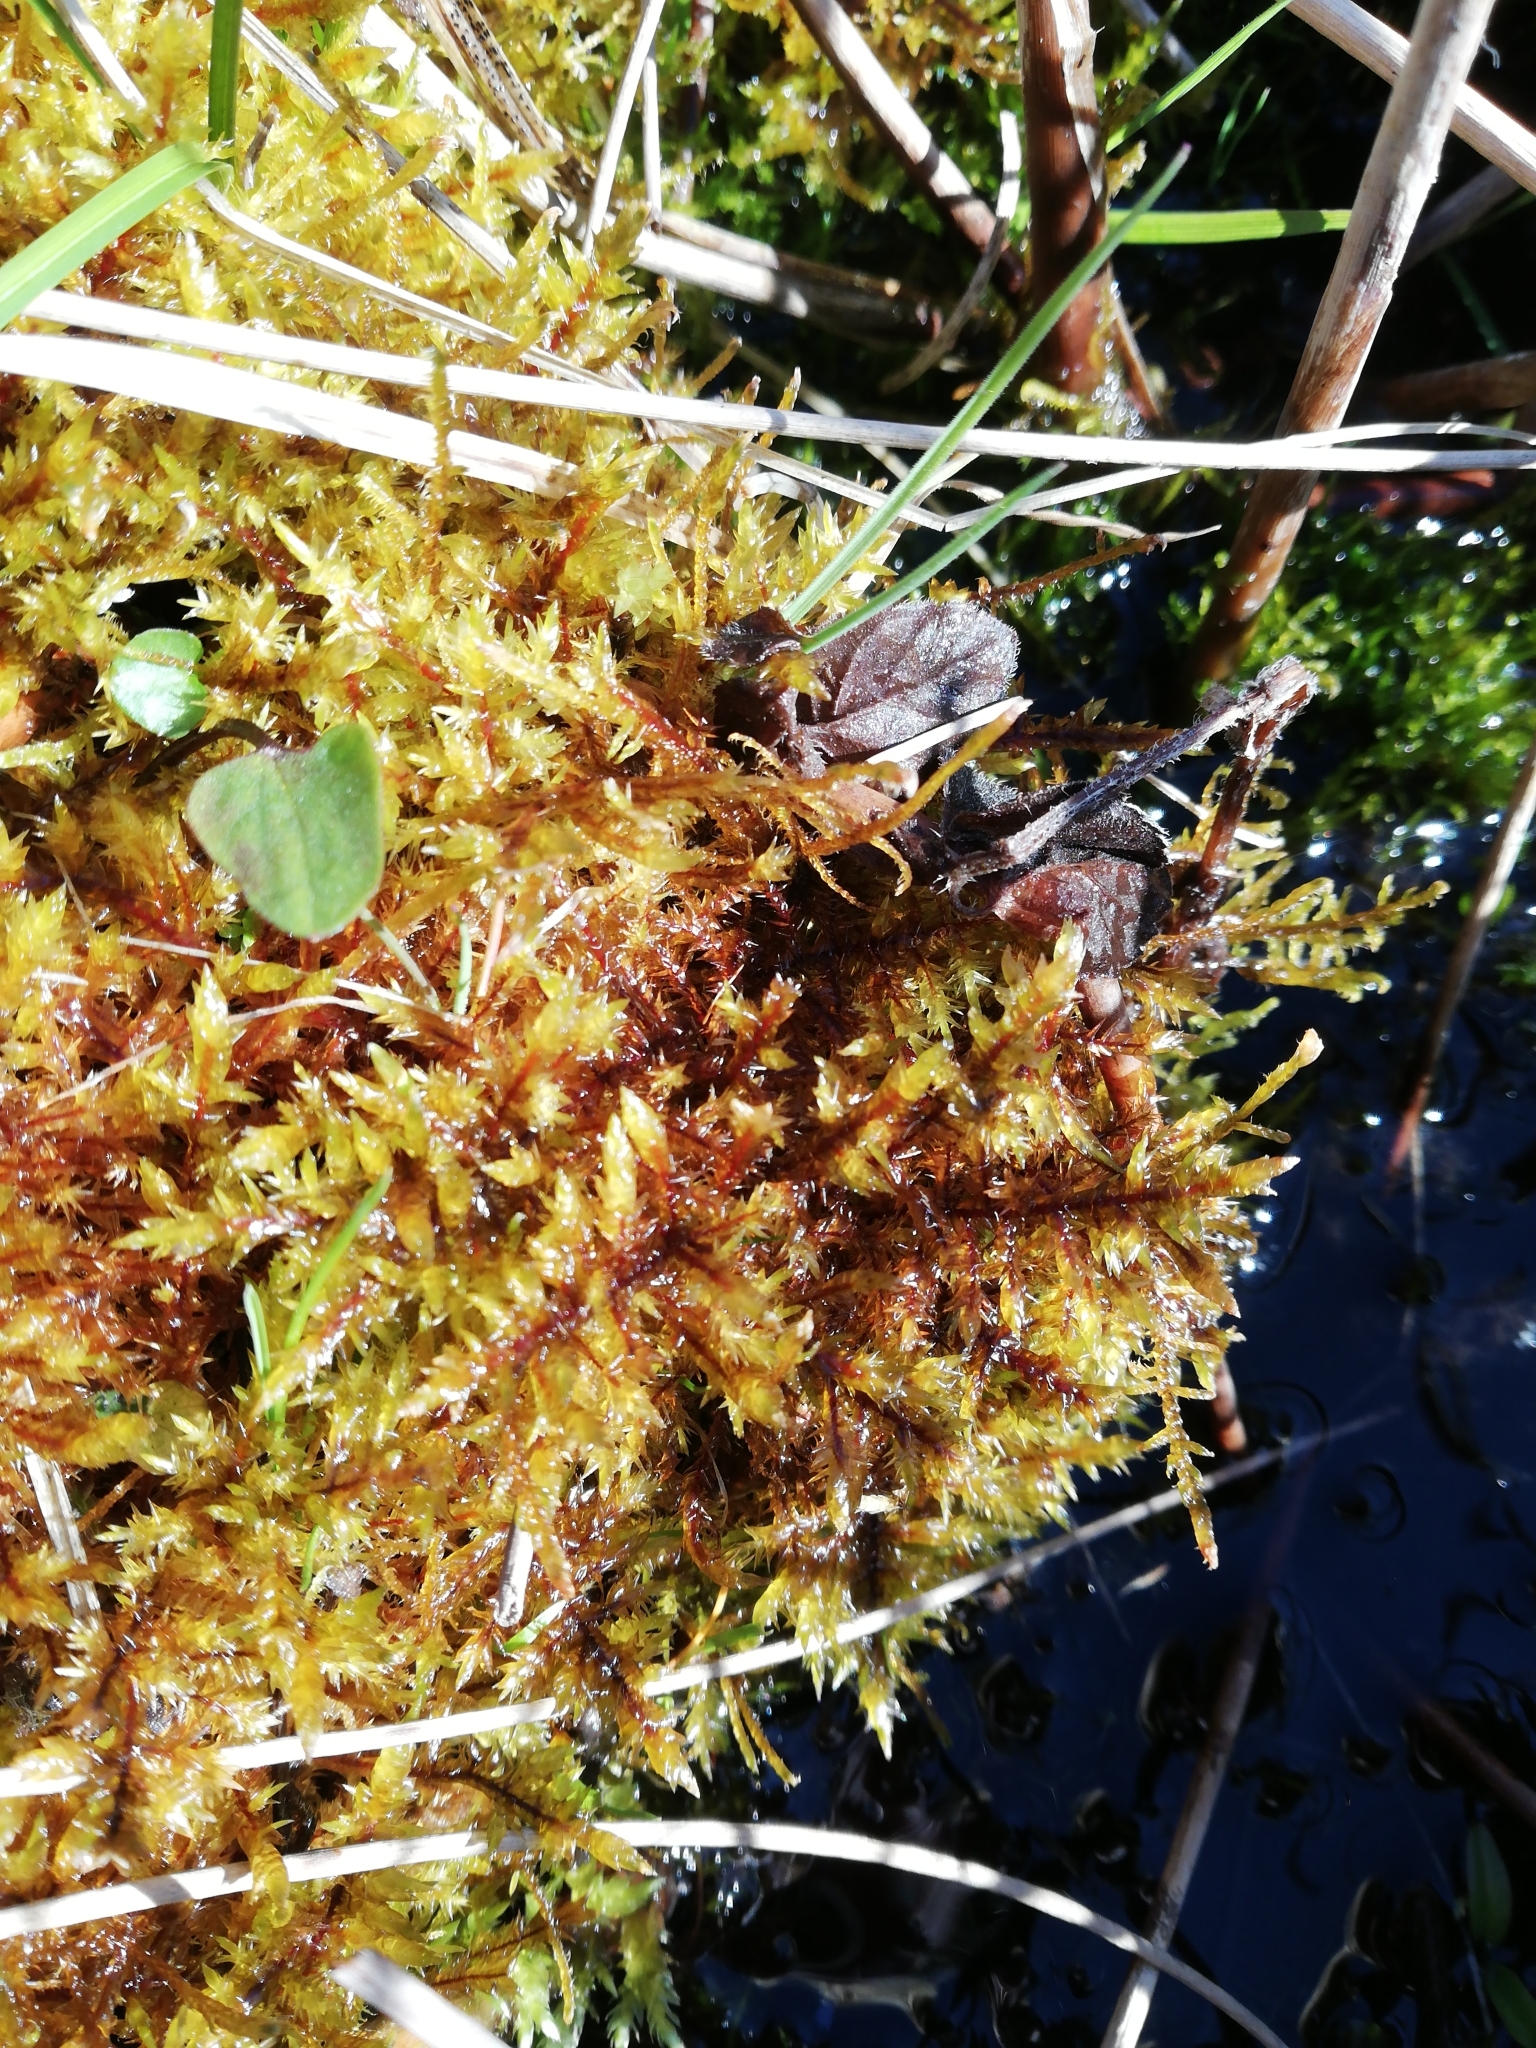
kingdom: Plantae
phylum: Bryophyta
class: Bryopsida
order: Hypnales
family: Pylaisiaceae
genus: Calliergonella
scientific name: Calliergonella cuspidata
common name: Common large wetland moss
